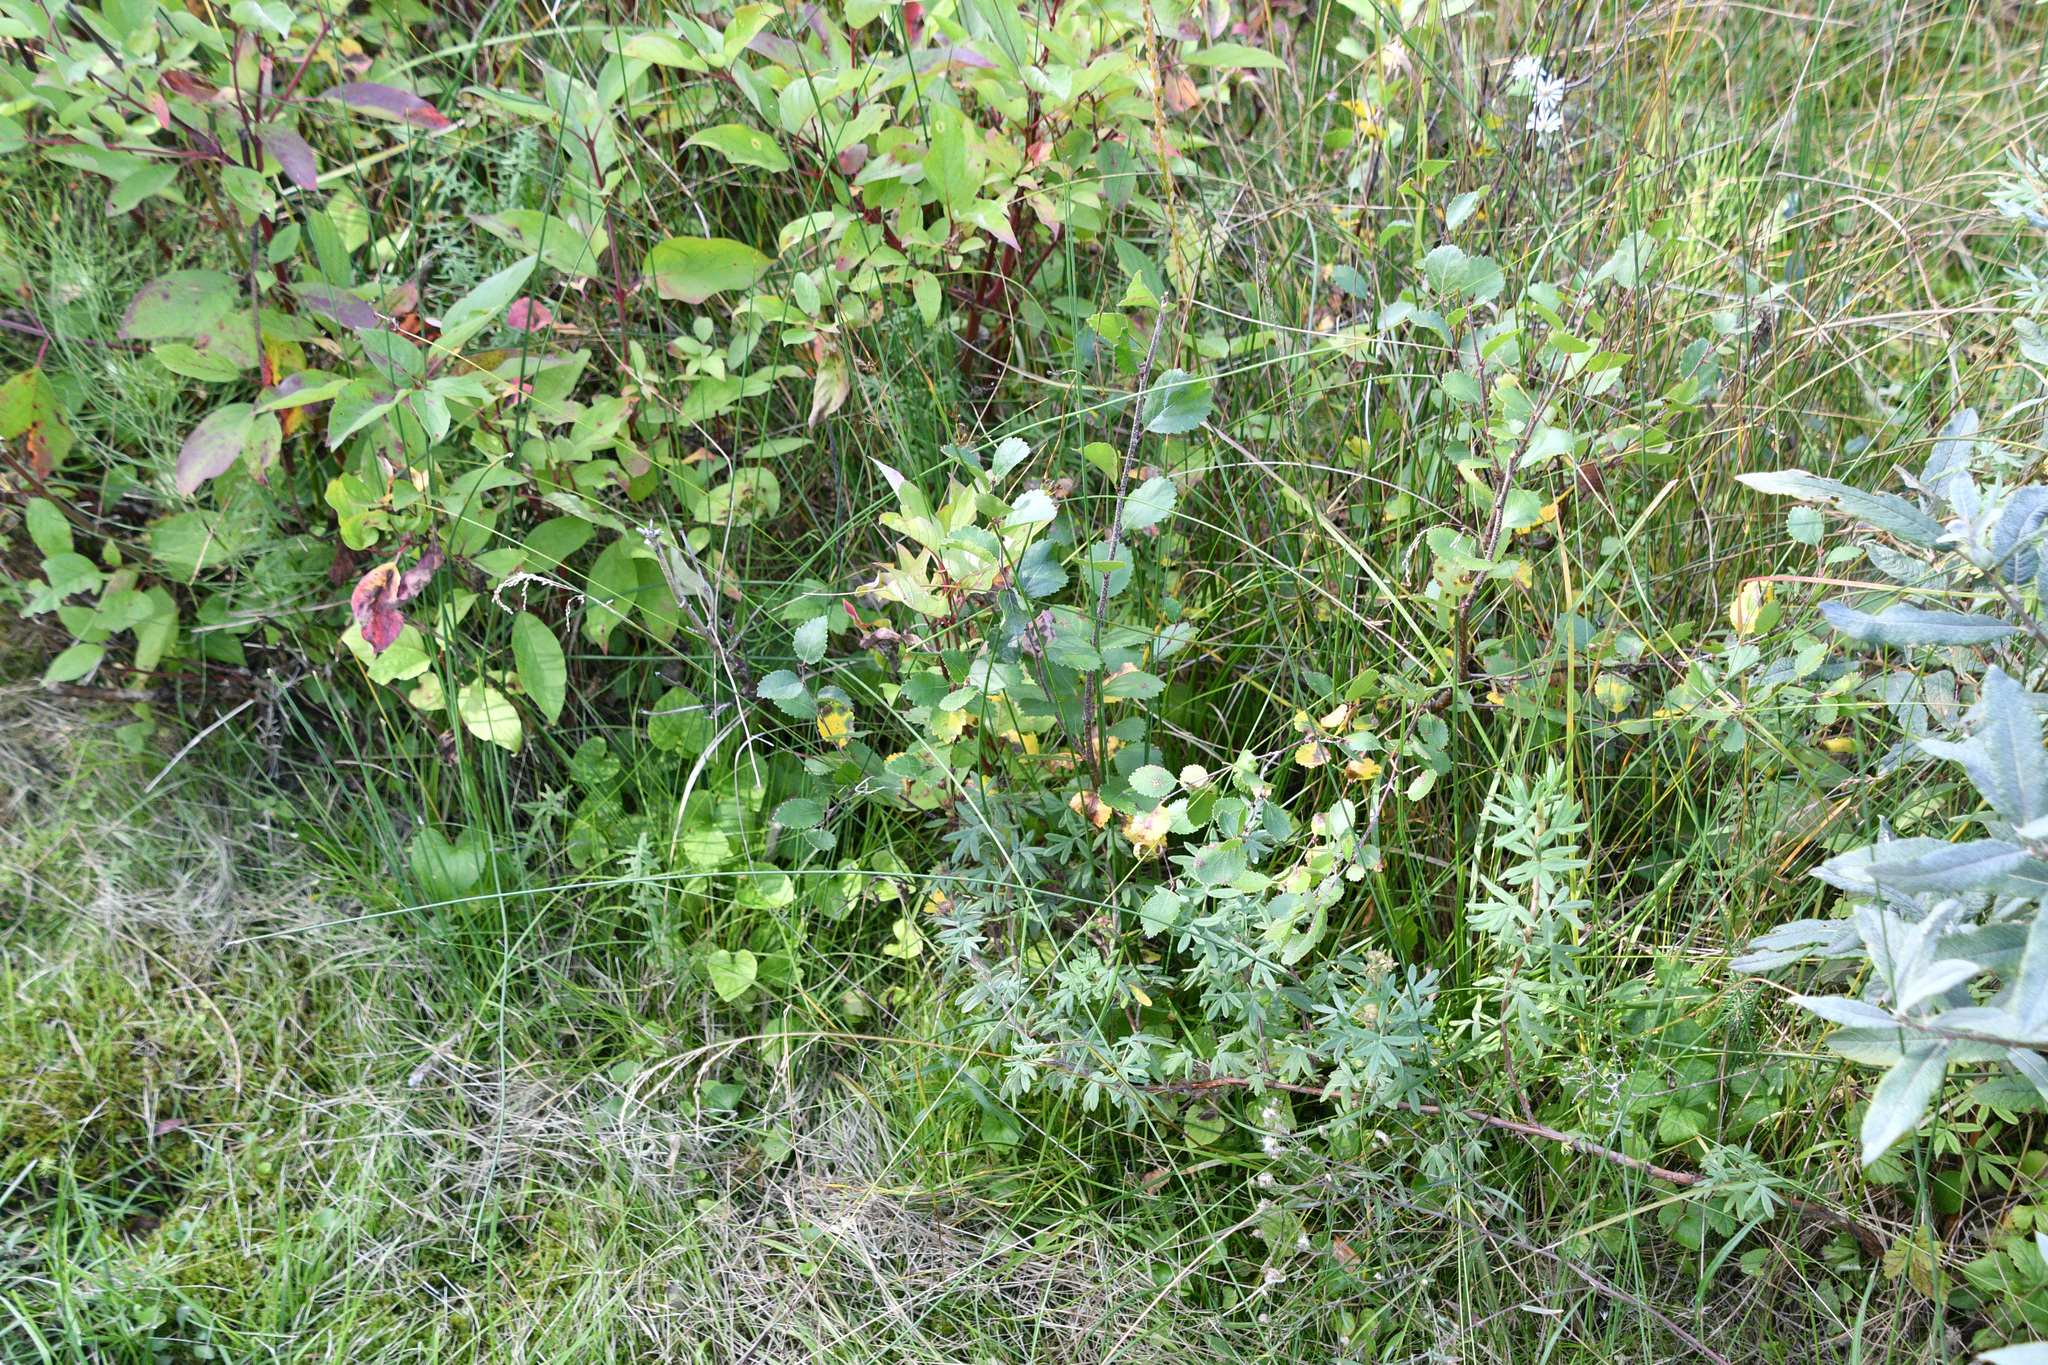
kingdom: Plantae
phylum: Tracheophyta
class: Magnoliopsida
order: Rosales
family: Rosaceae
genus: Dasiphora
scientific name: Dasiphora fruticosa
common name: Shrubby cinquefoil
